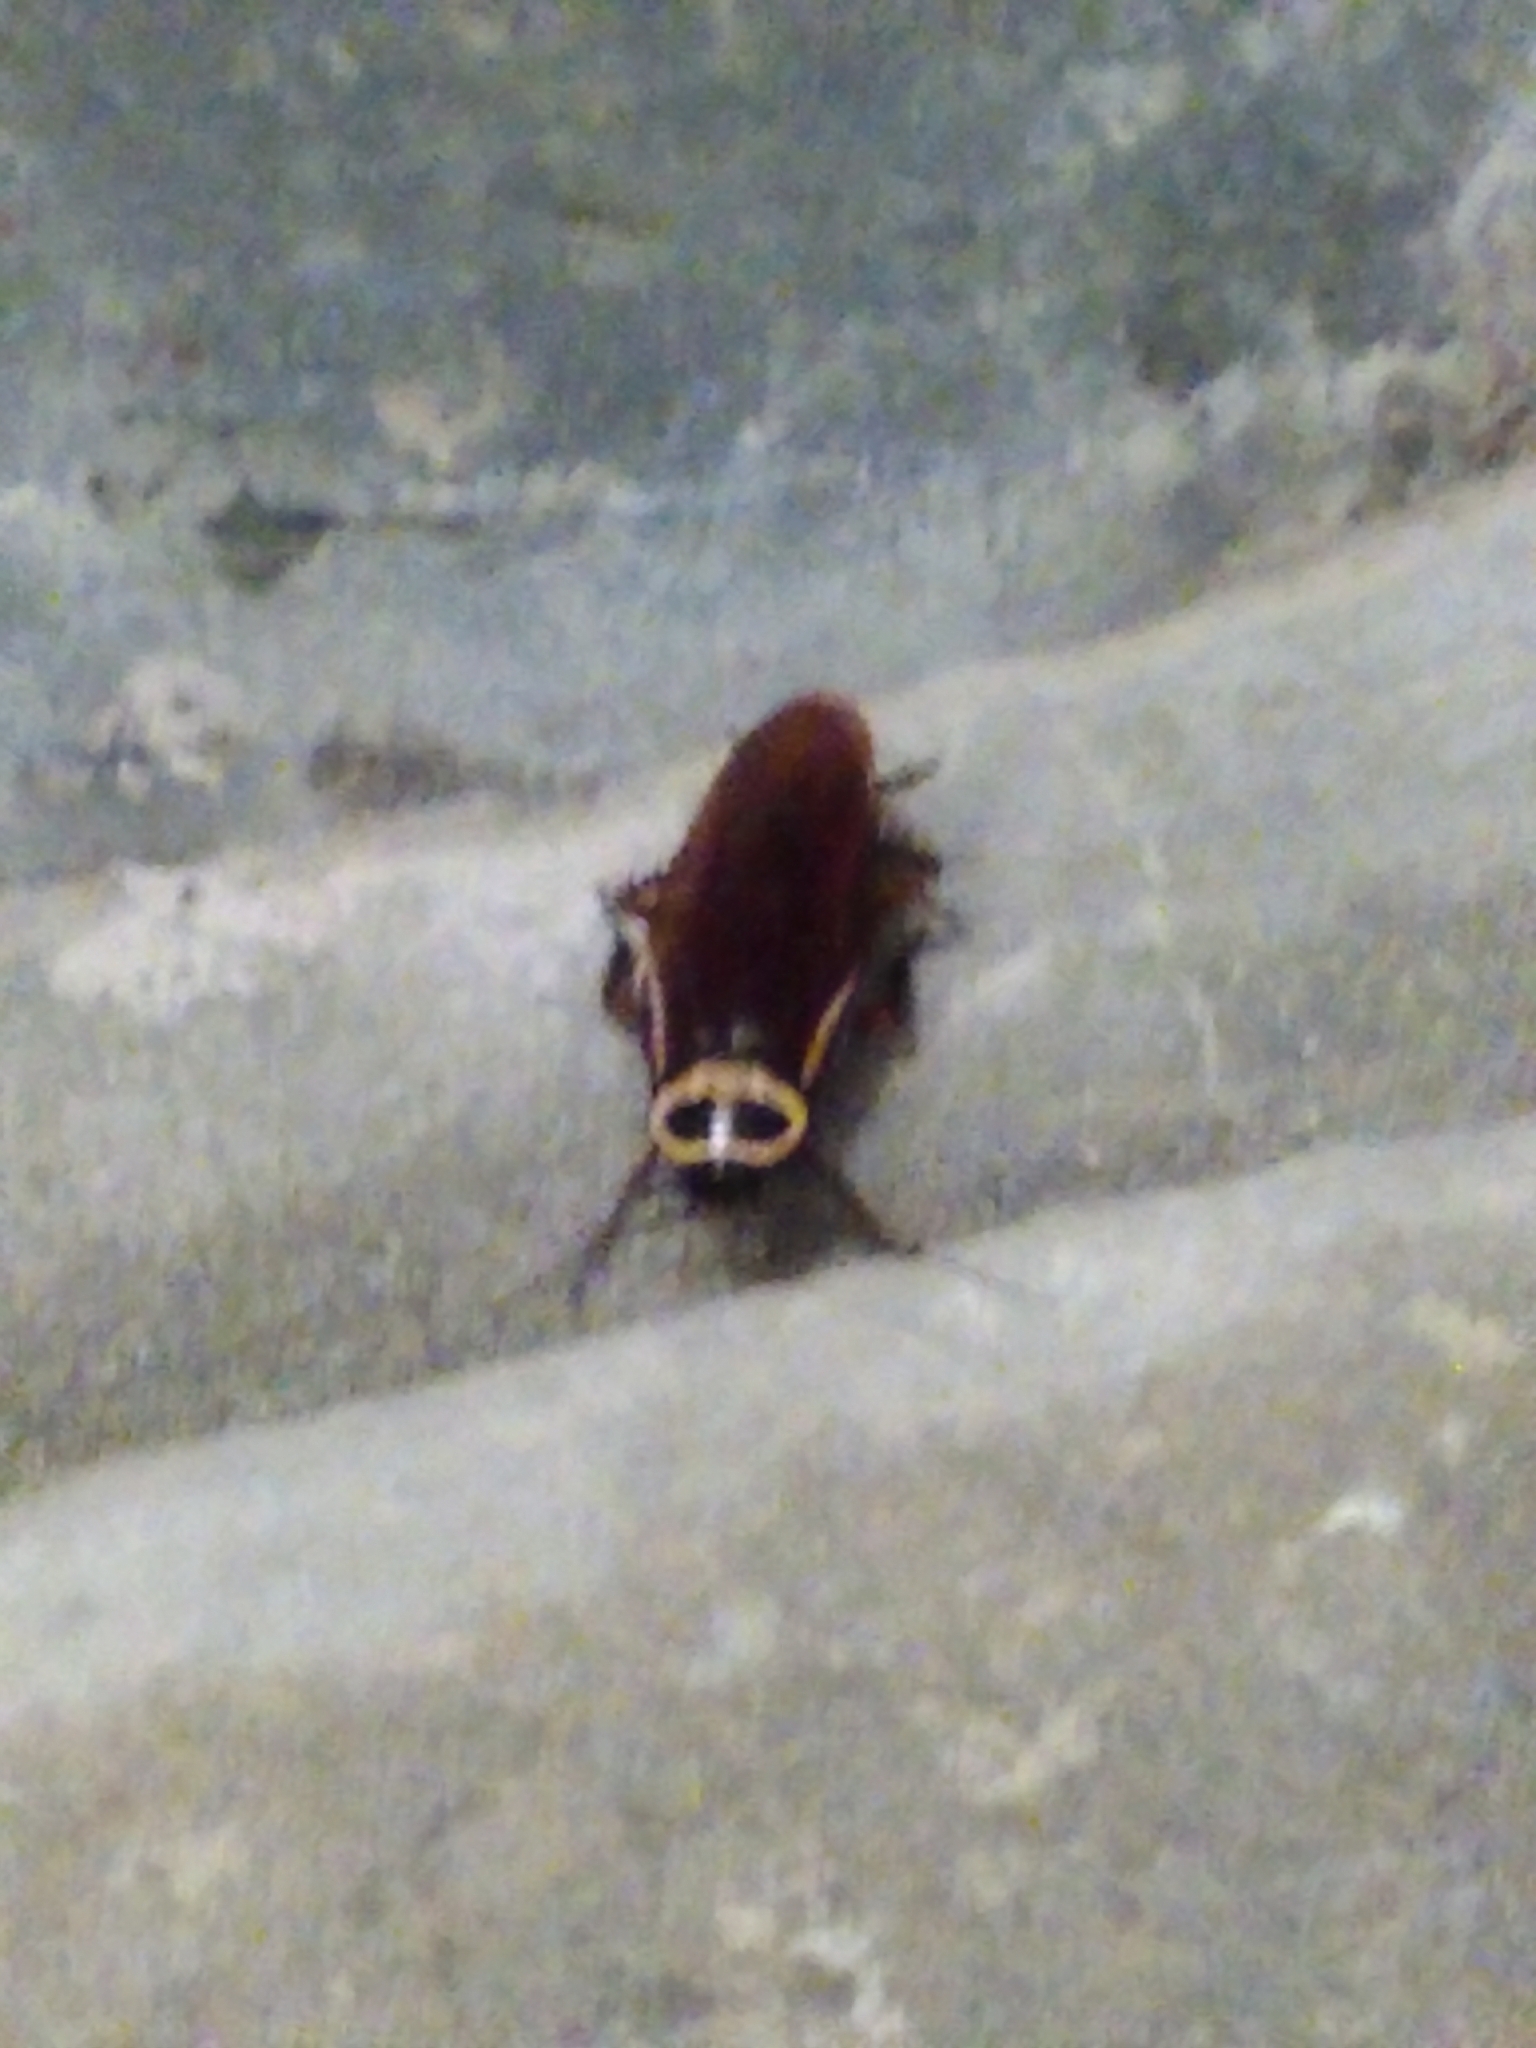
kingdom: Animalia
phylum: Arthropoda
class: Insecta
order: Blattodea
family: Blattidae
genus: Periplaneta
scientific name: Periplaneta australasiae
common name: Australian cockroach
